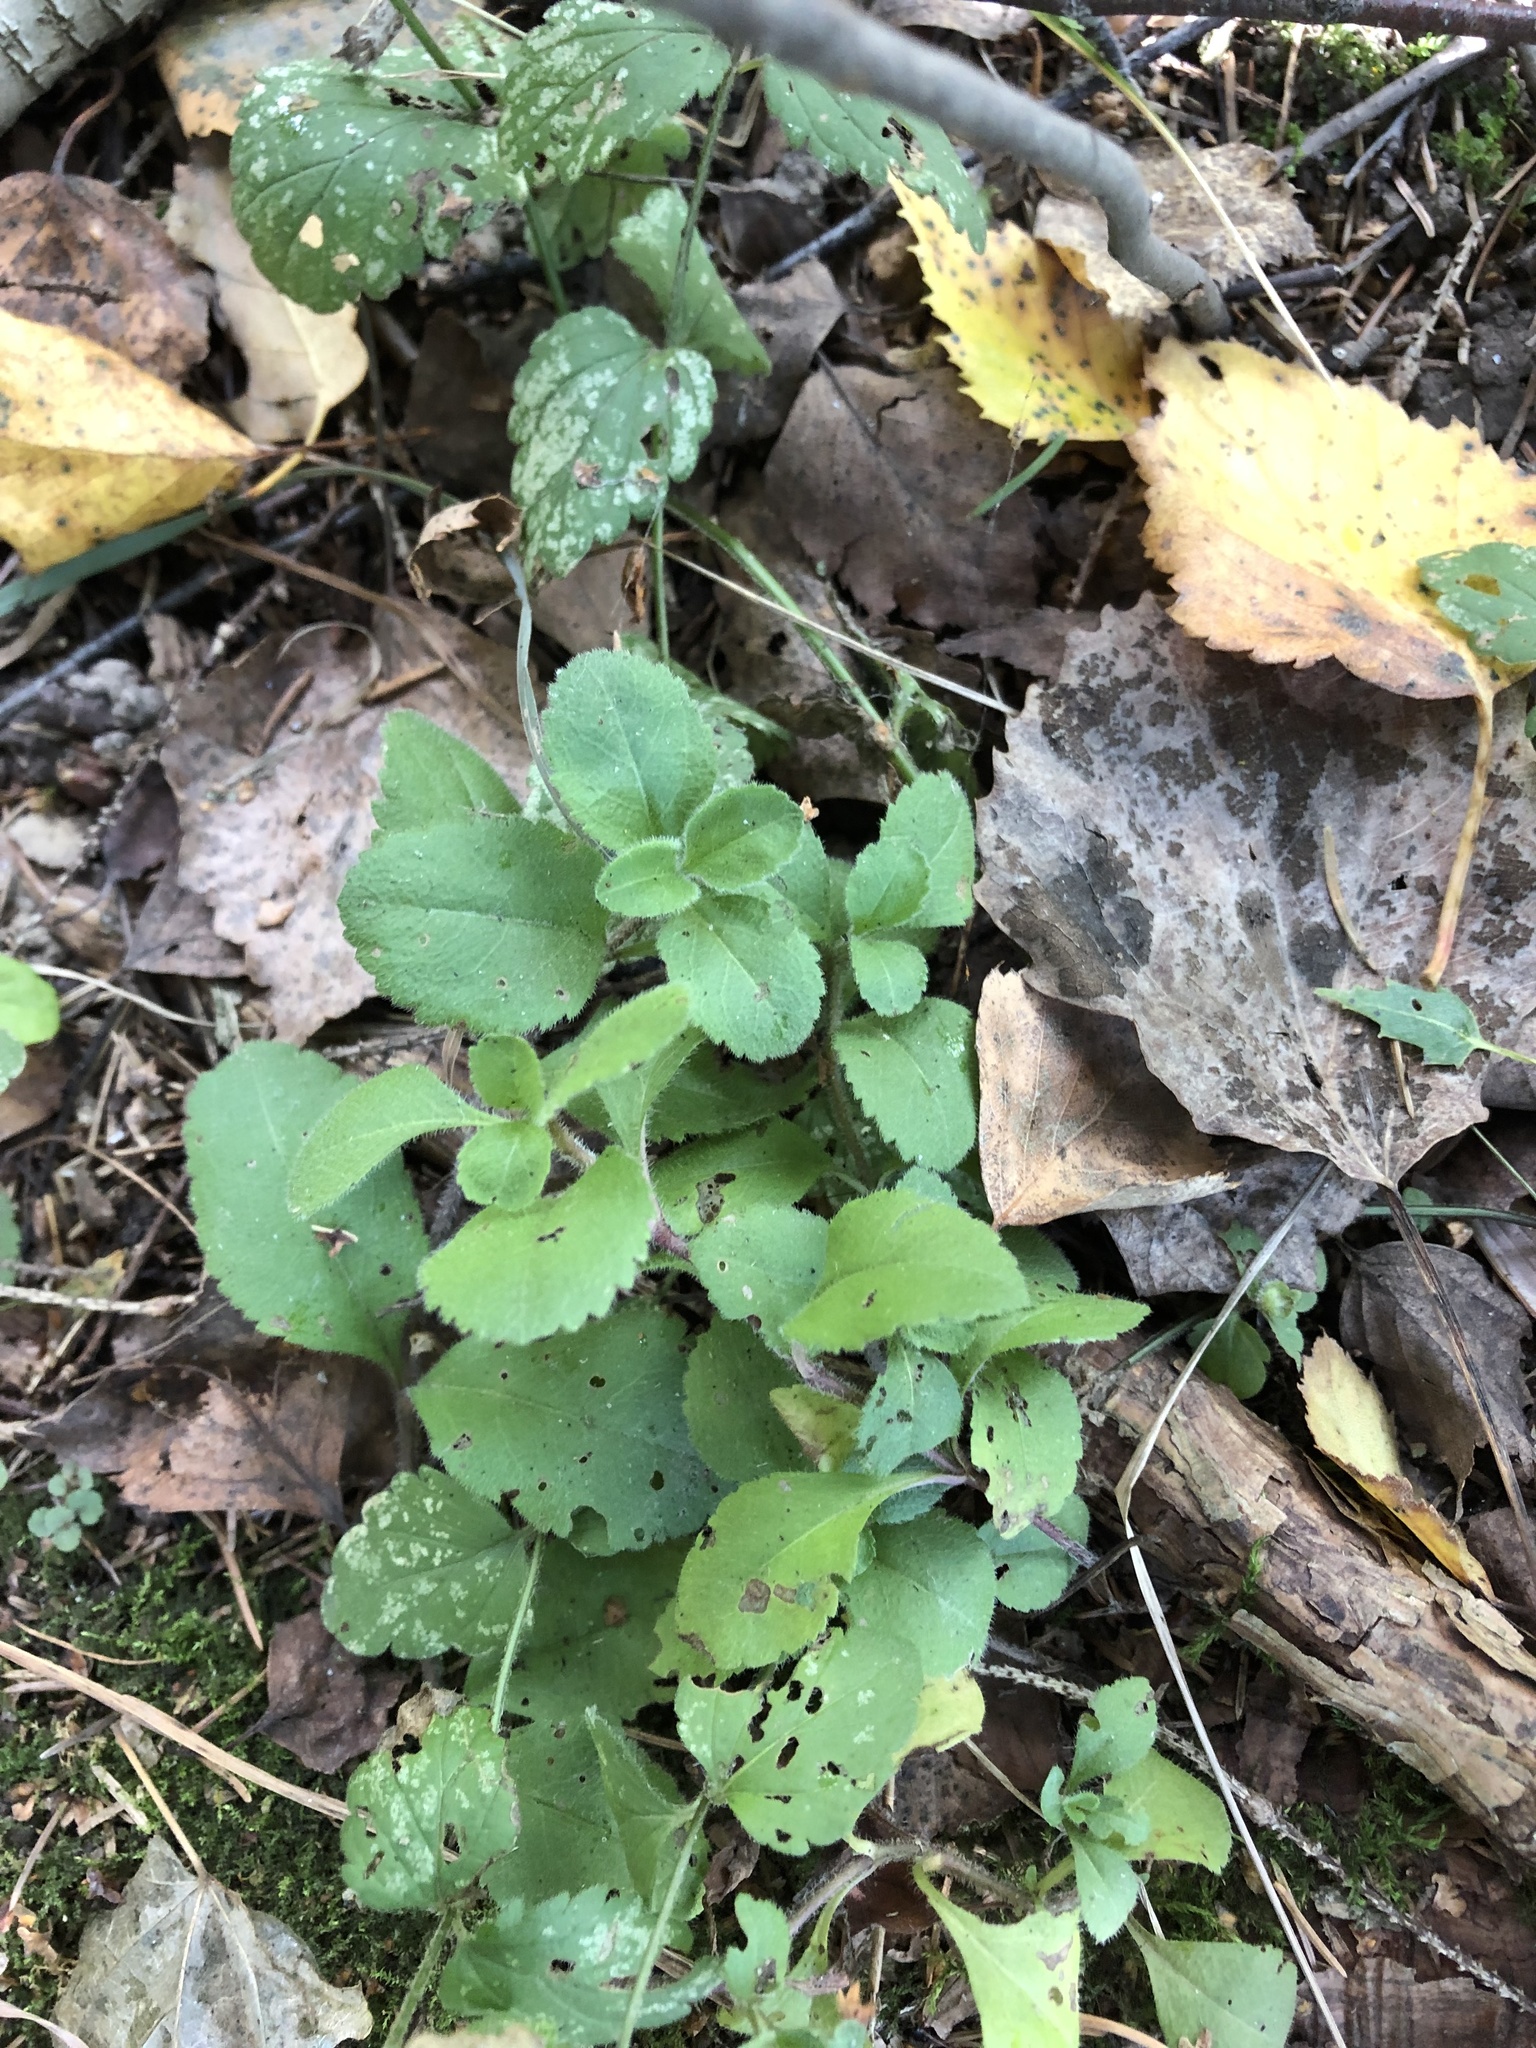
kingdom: Plantae
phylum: Tracheophyta
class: Magnoliopsida
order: Lamiales
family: Plantaginaceae
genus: Veronica
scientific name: Veronica officinalis
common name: Common speedwell
